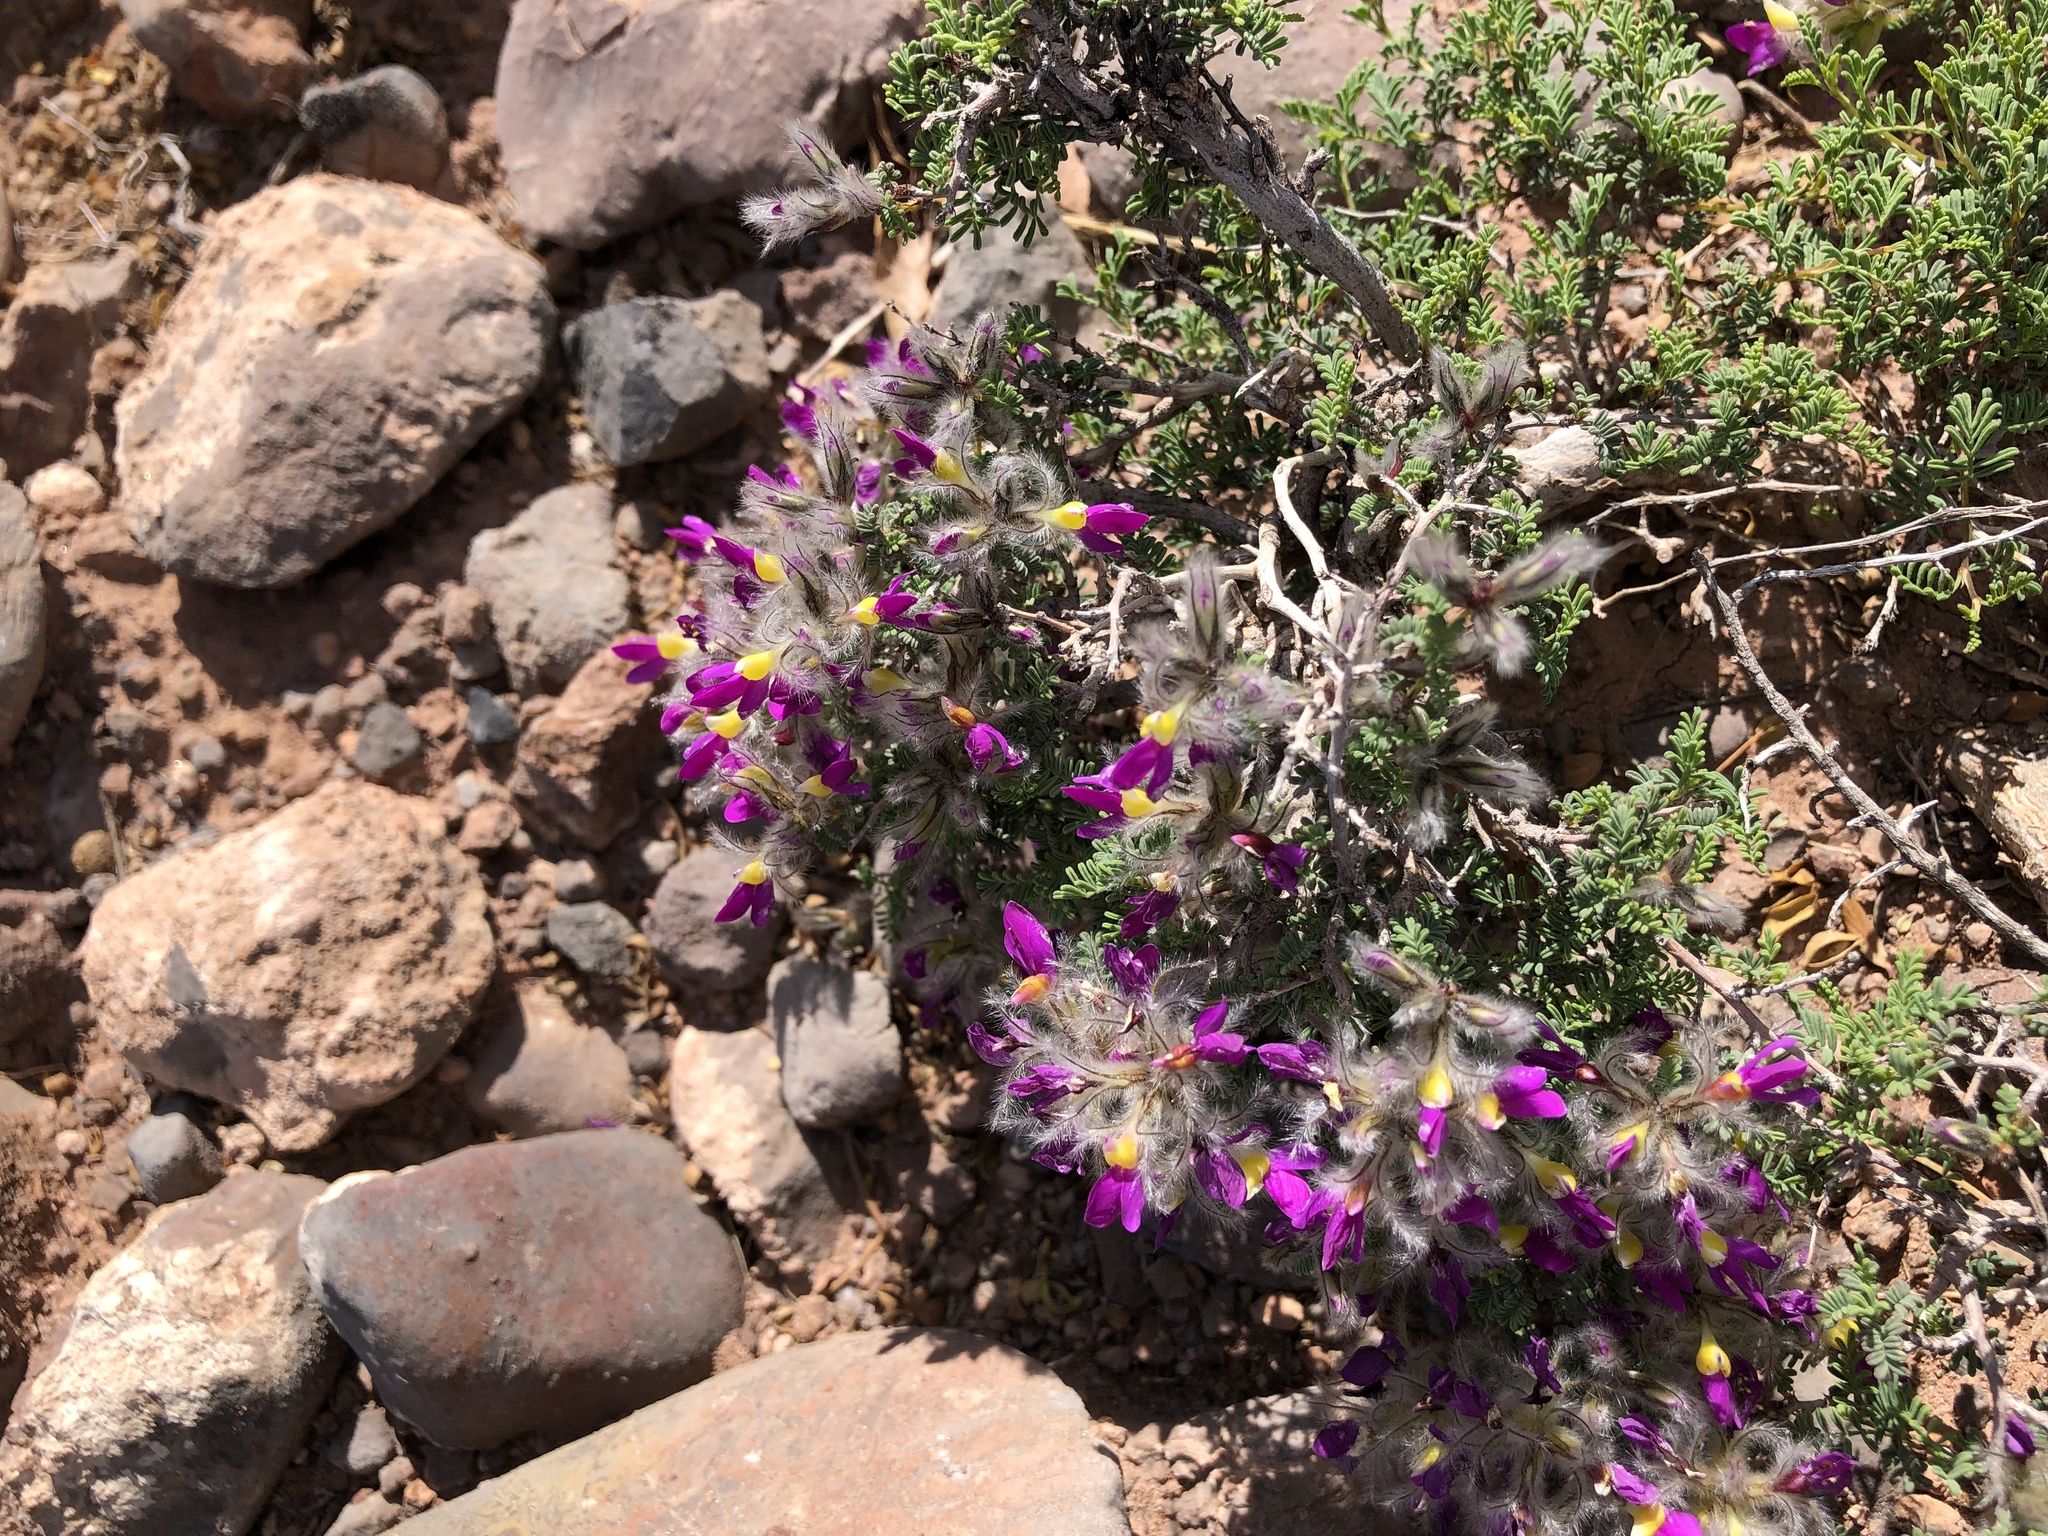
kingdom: Plantae
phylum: Tracheophyta
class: Magnoliopsida
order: Fabales
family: Fabaceae
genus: Dalea
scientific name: Dalea formosa
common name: Feather-plume dalea
